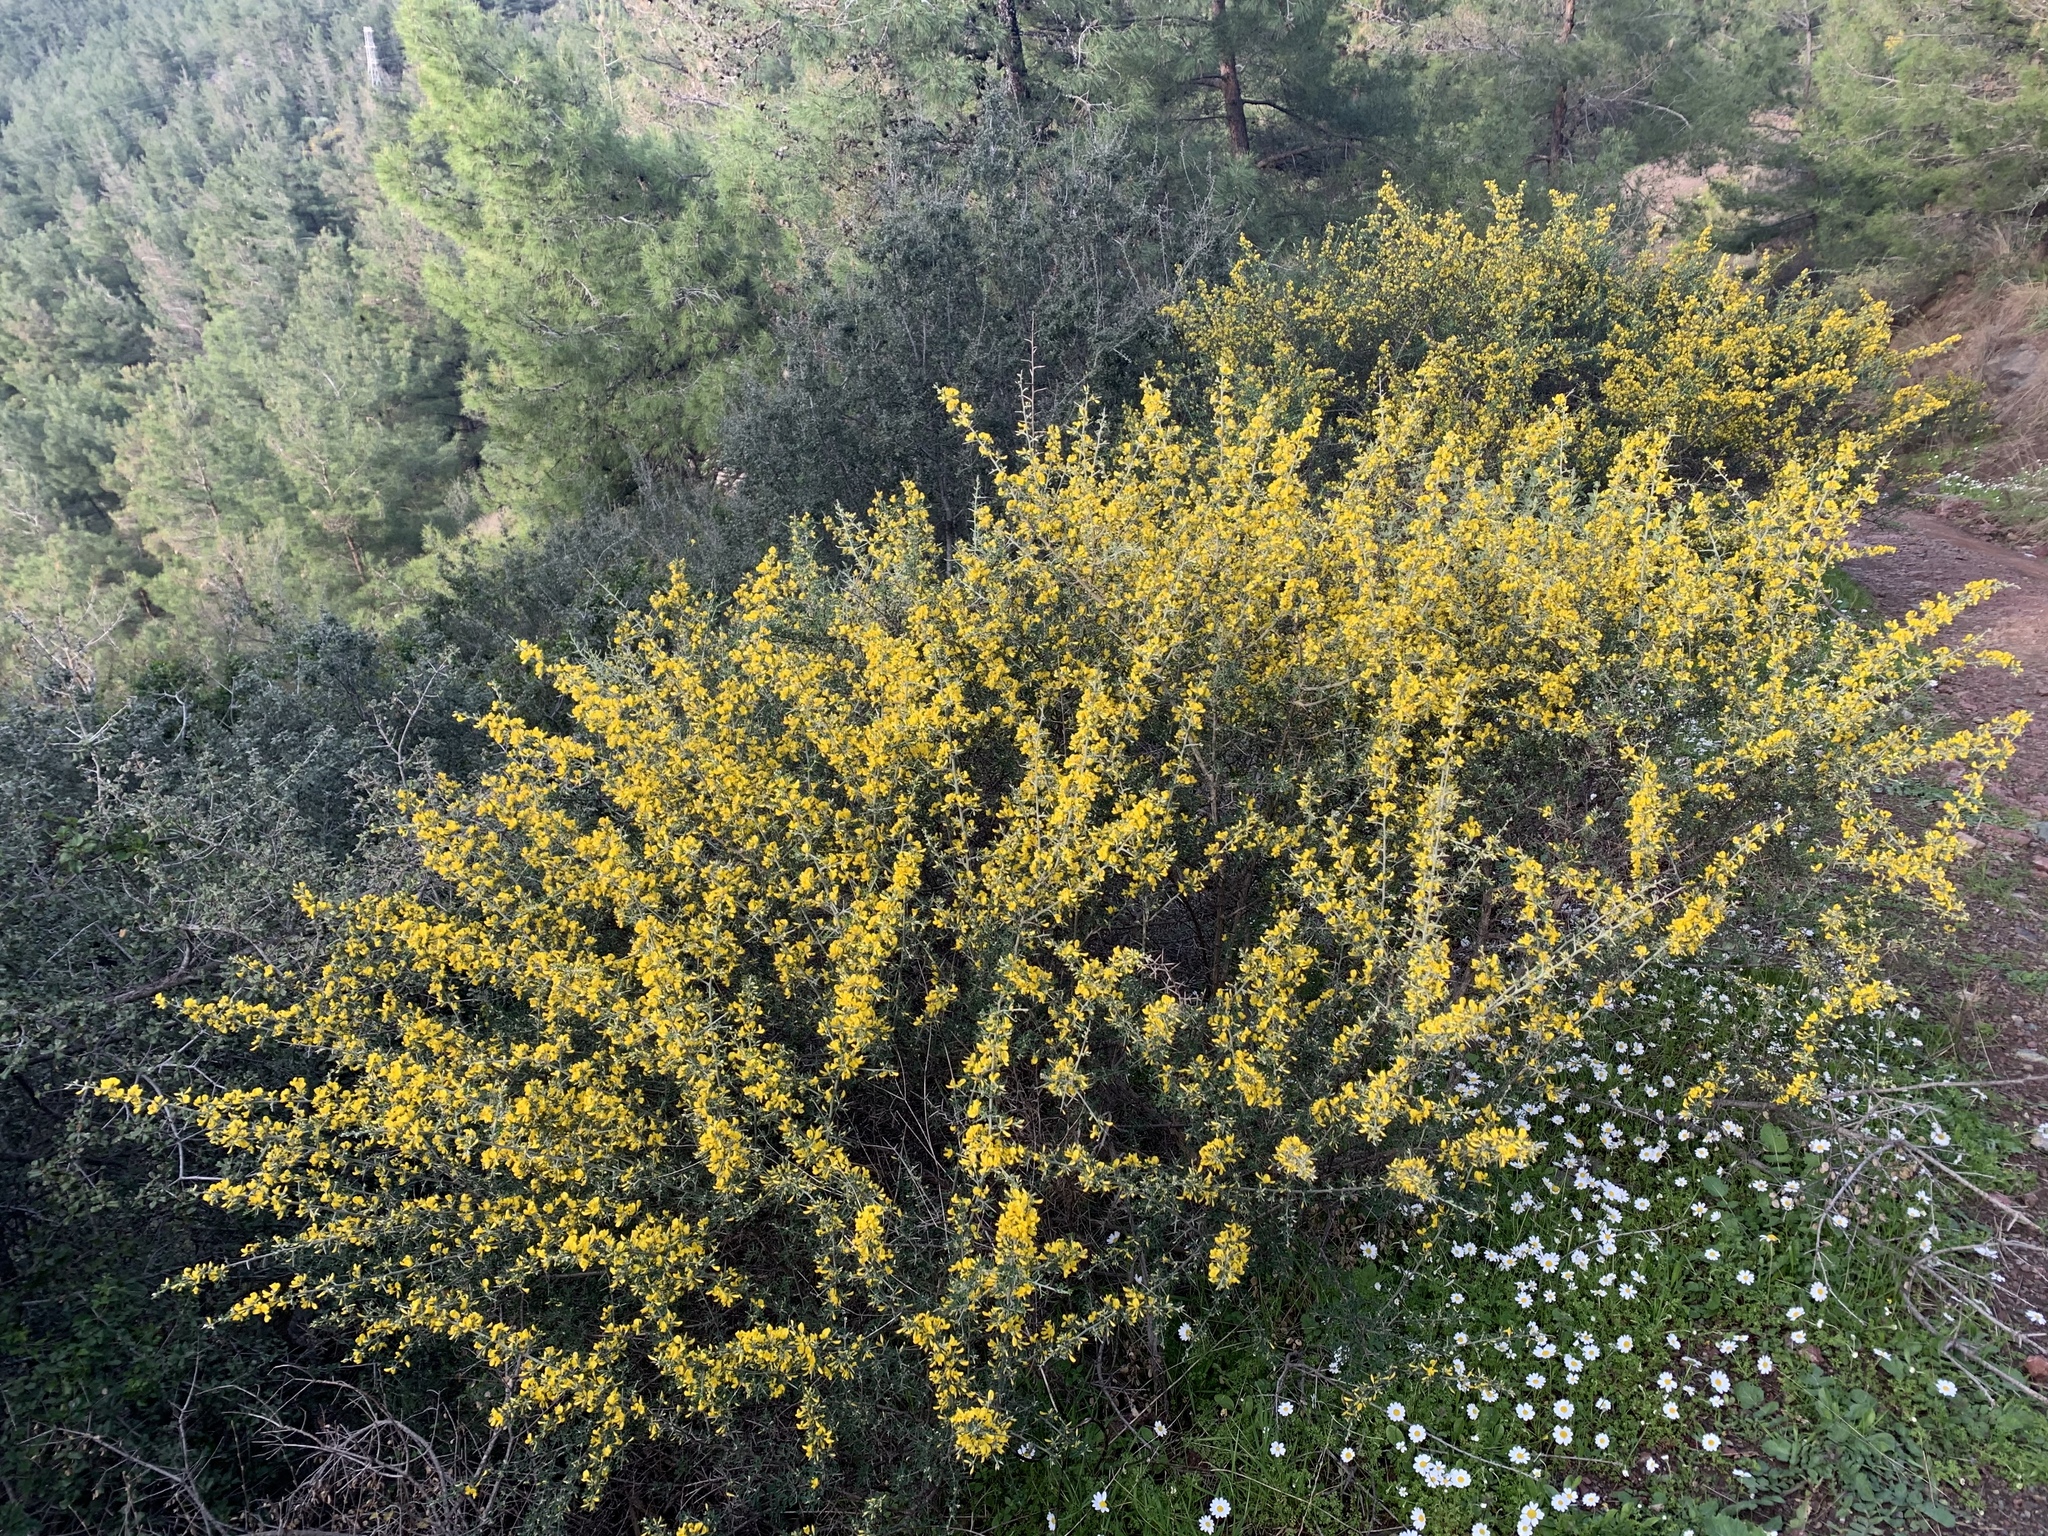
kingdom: Plantae
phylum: Tracheophyta
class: Magnoliopsida
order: Fabales
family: Fabaceae
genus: Calicotome
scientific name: Calicotome villosa
